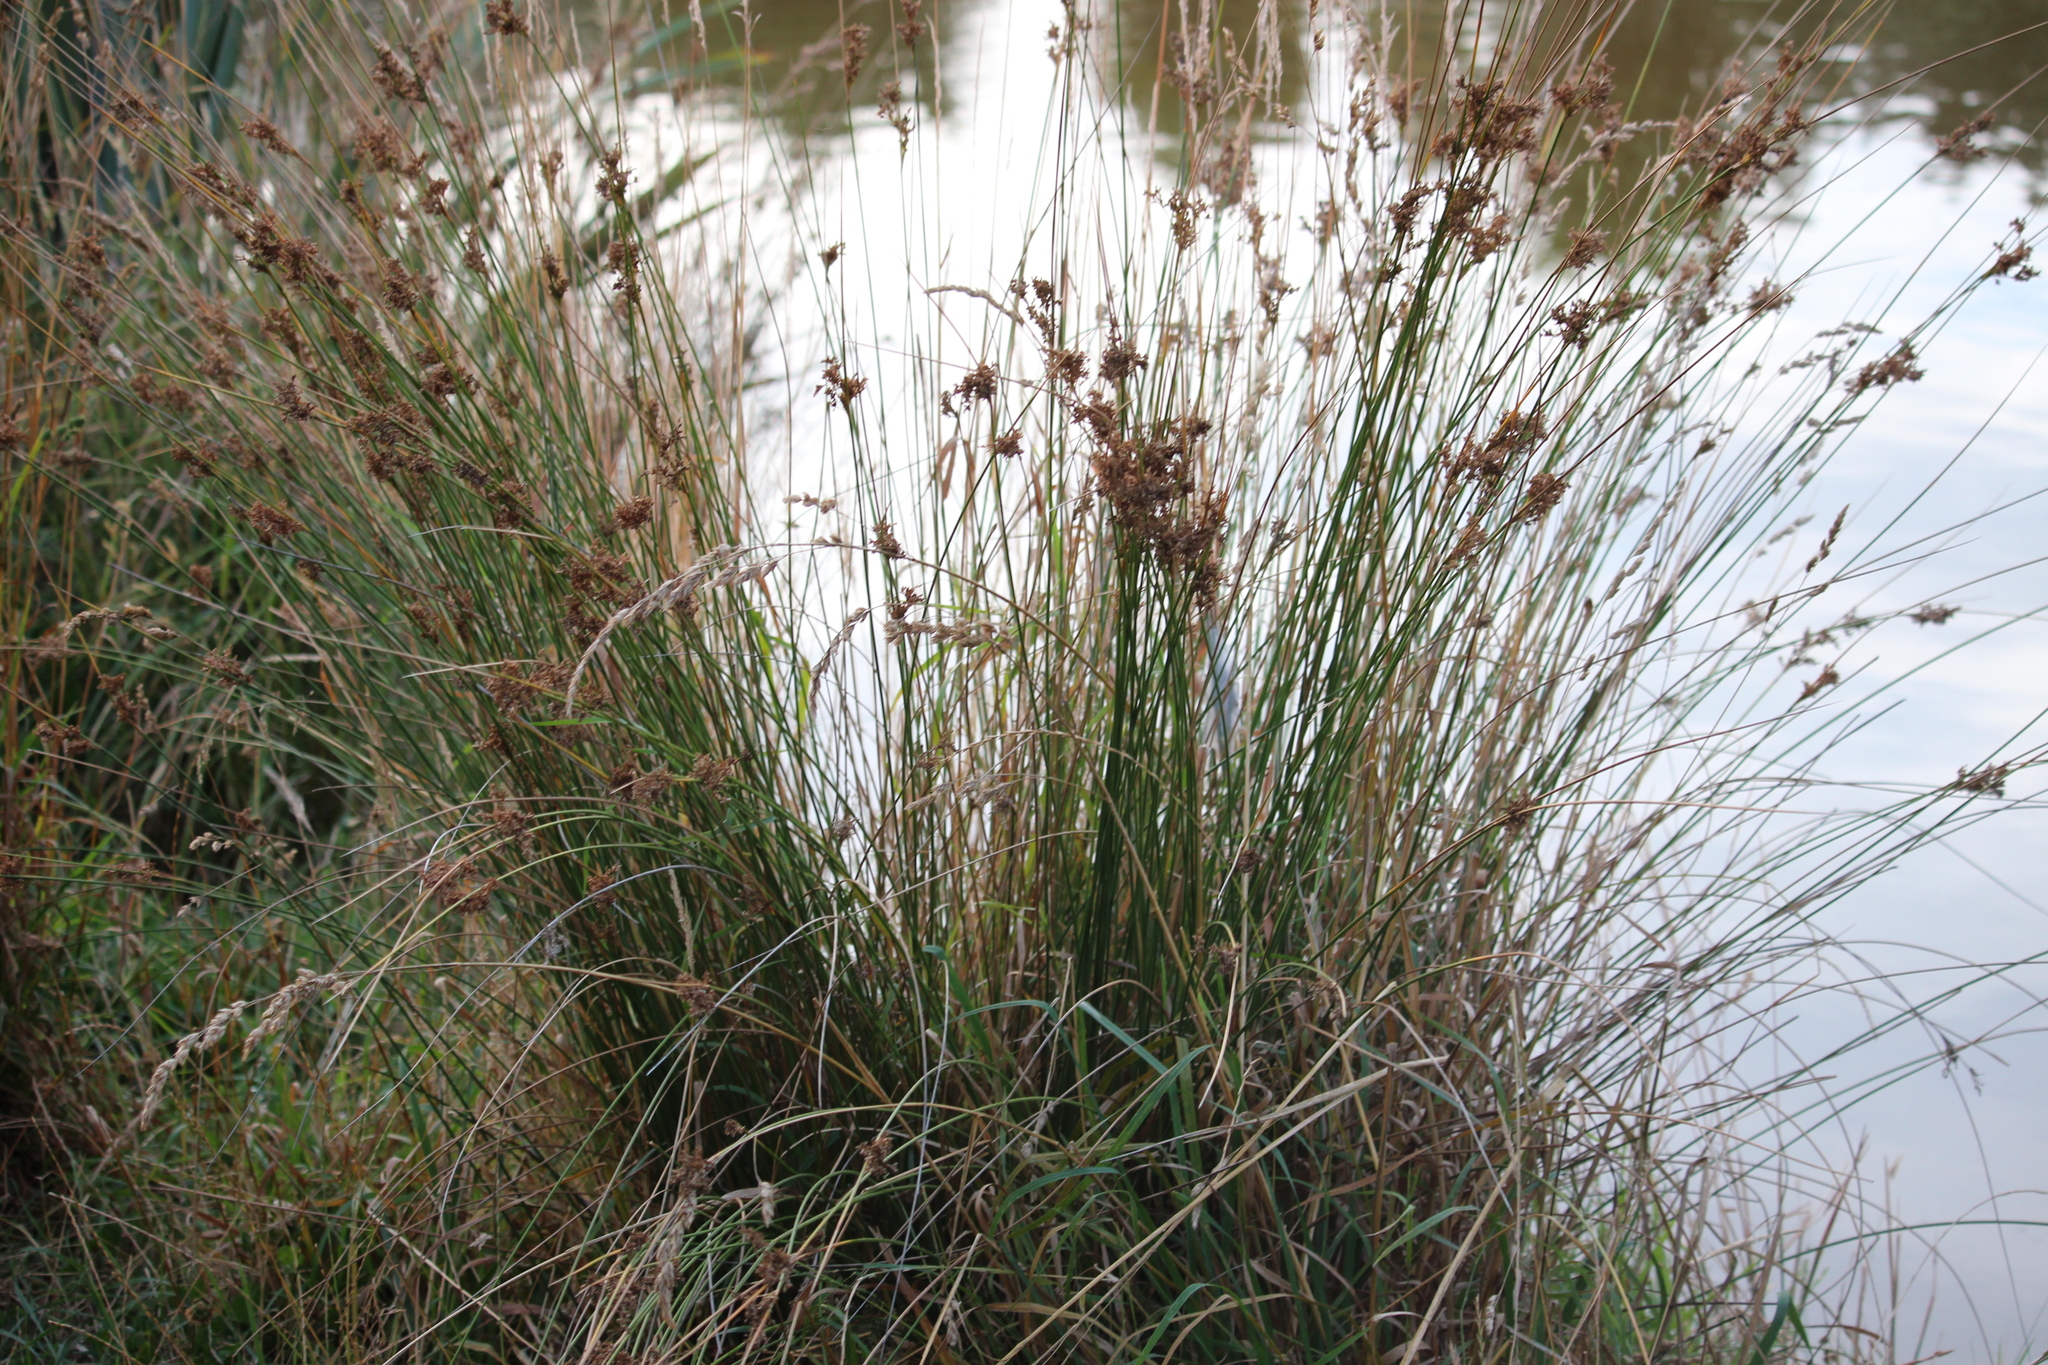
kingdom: Plantae
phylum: Tracheophyta
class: Liliopsida
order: Poales
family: Juncaceae
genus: Juncus
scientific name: Juncus edgariae
